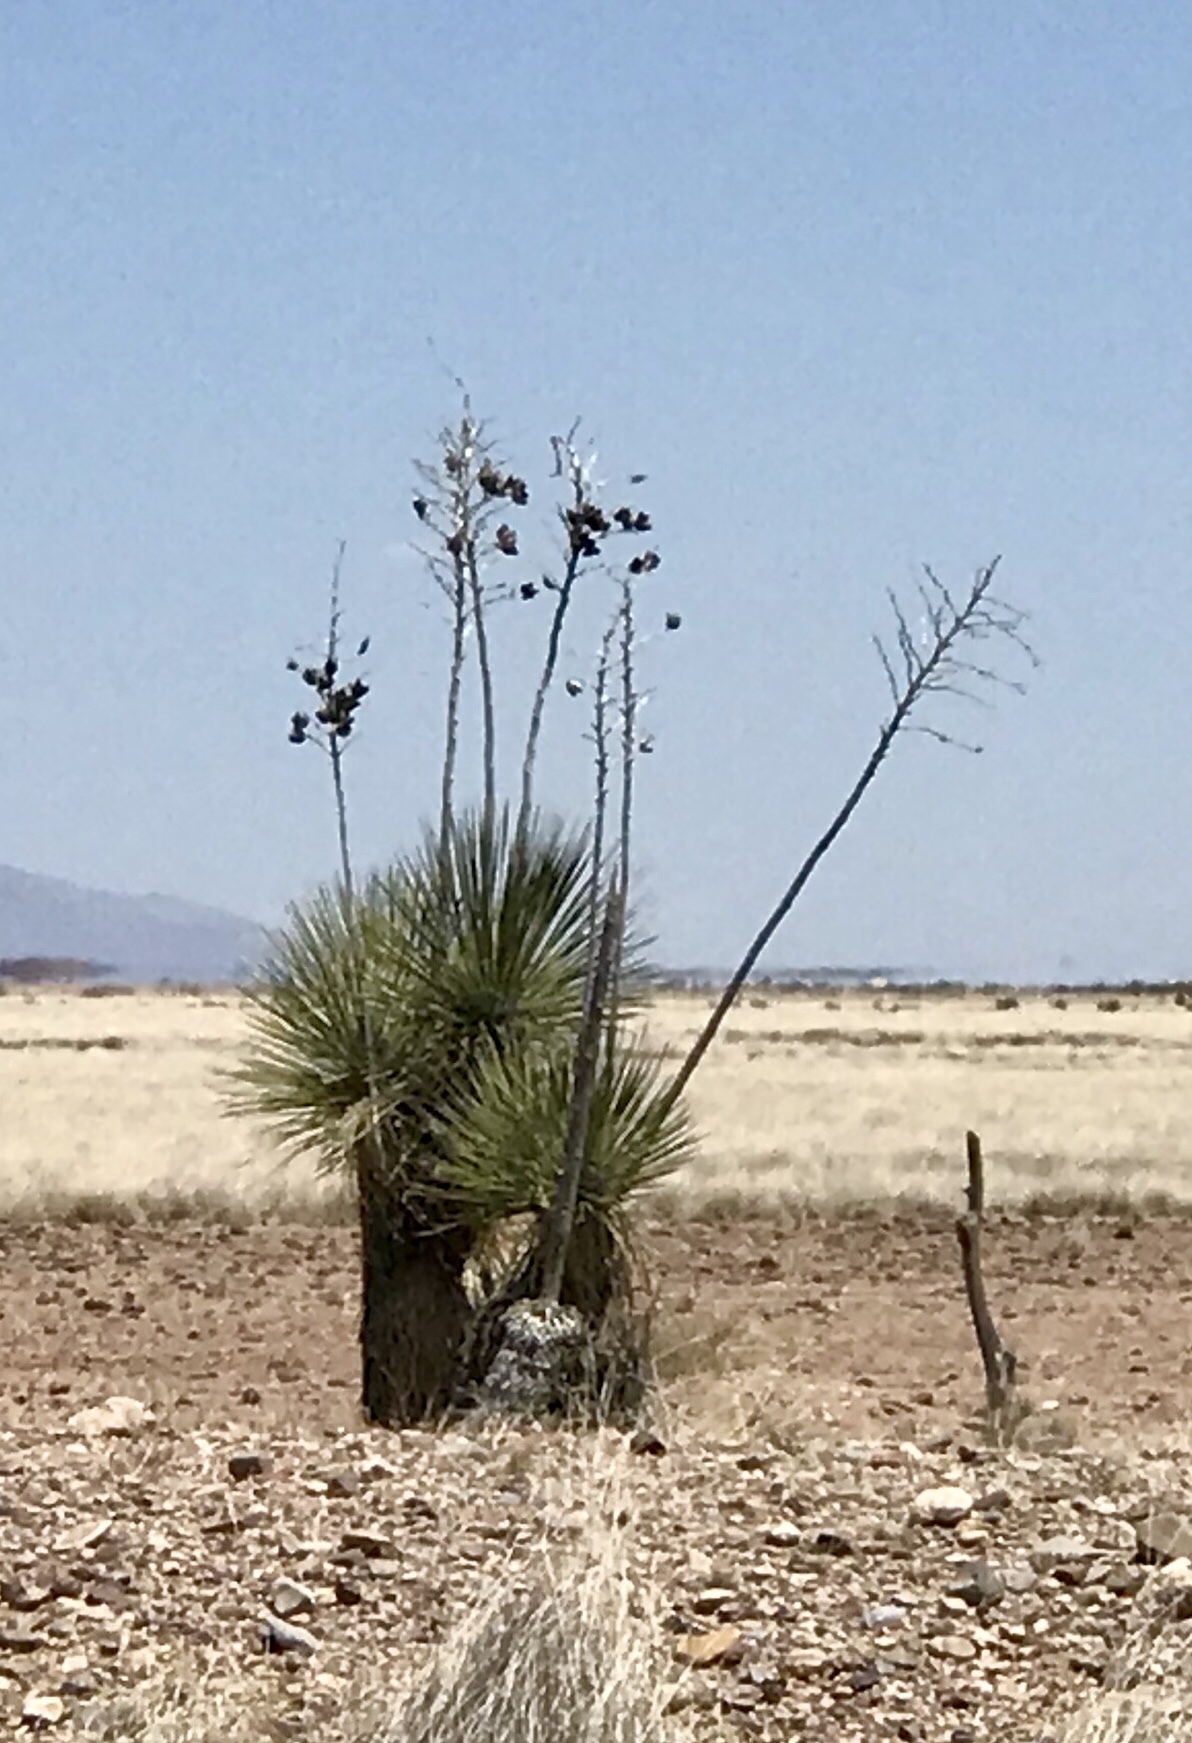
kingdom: Plantae
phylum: Tracheophyta
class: Liliopsida
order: Asparagales
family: Asparagaceae
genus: Yucca
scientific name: Yucca elata
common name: Palmella
